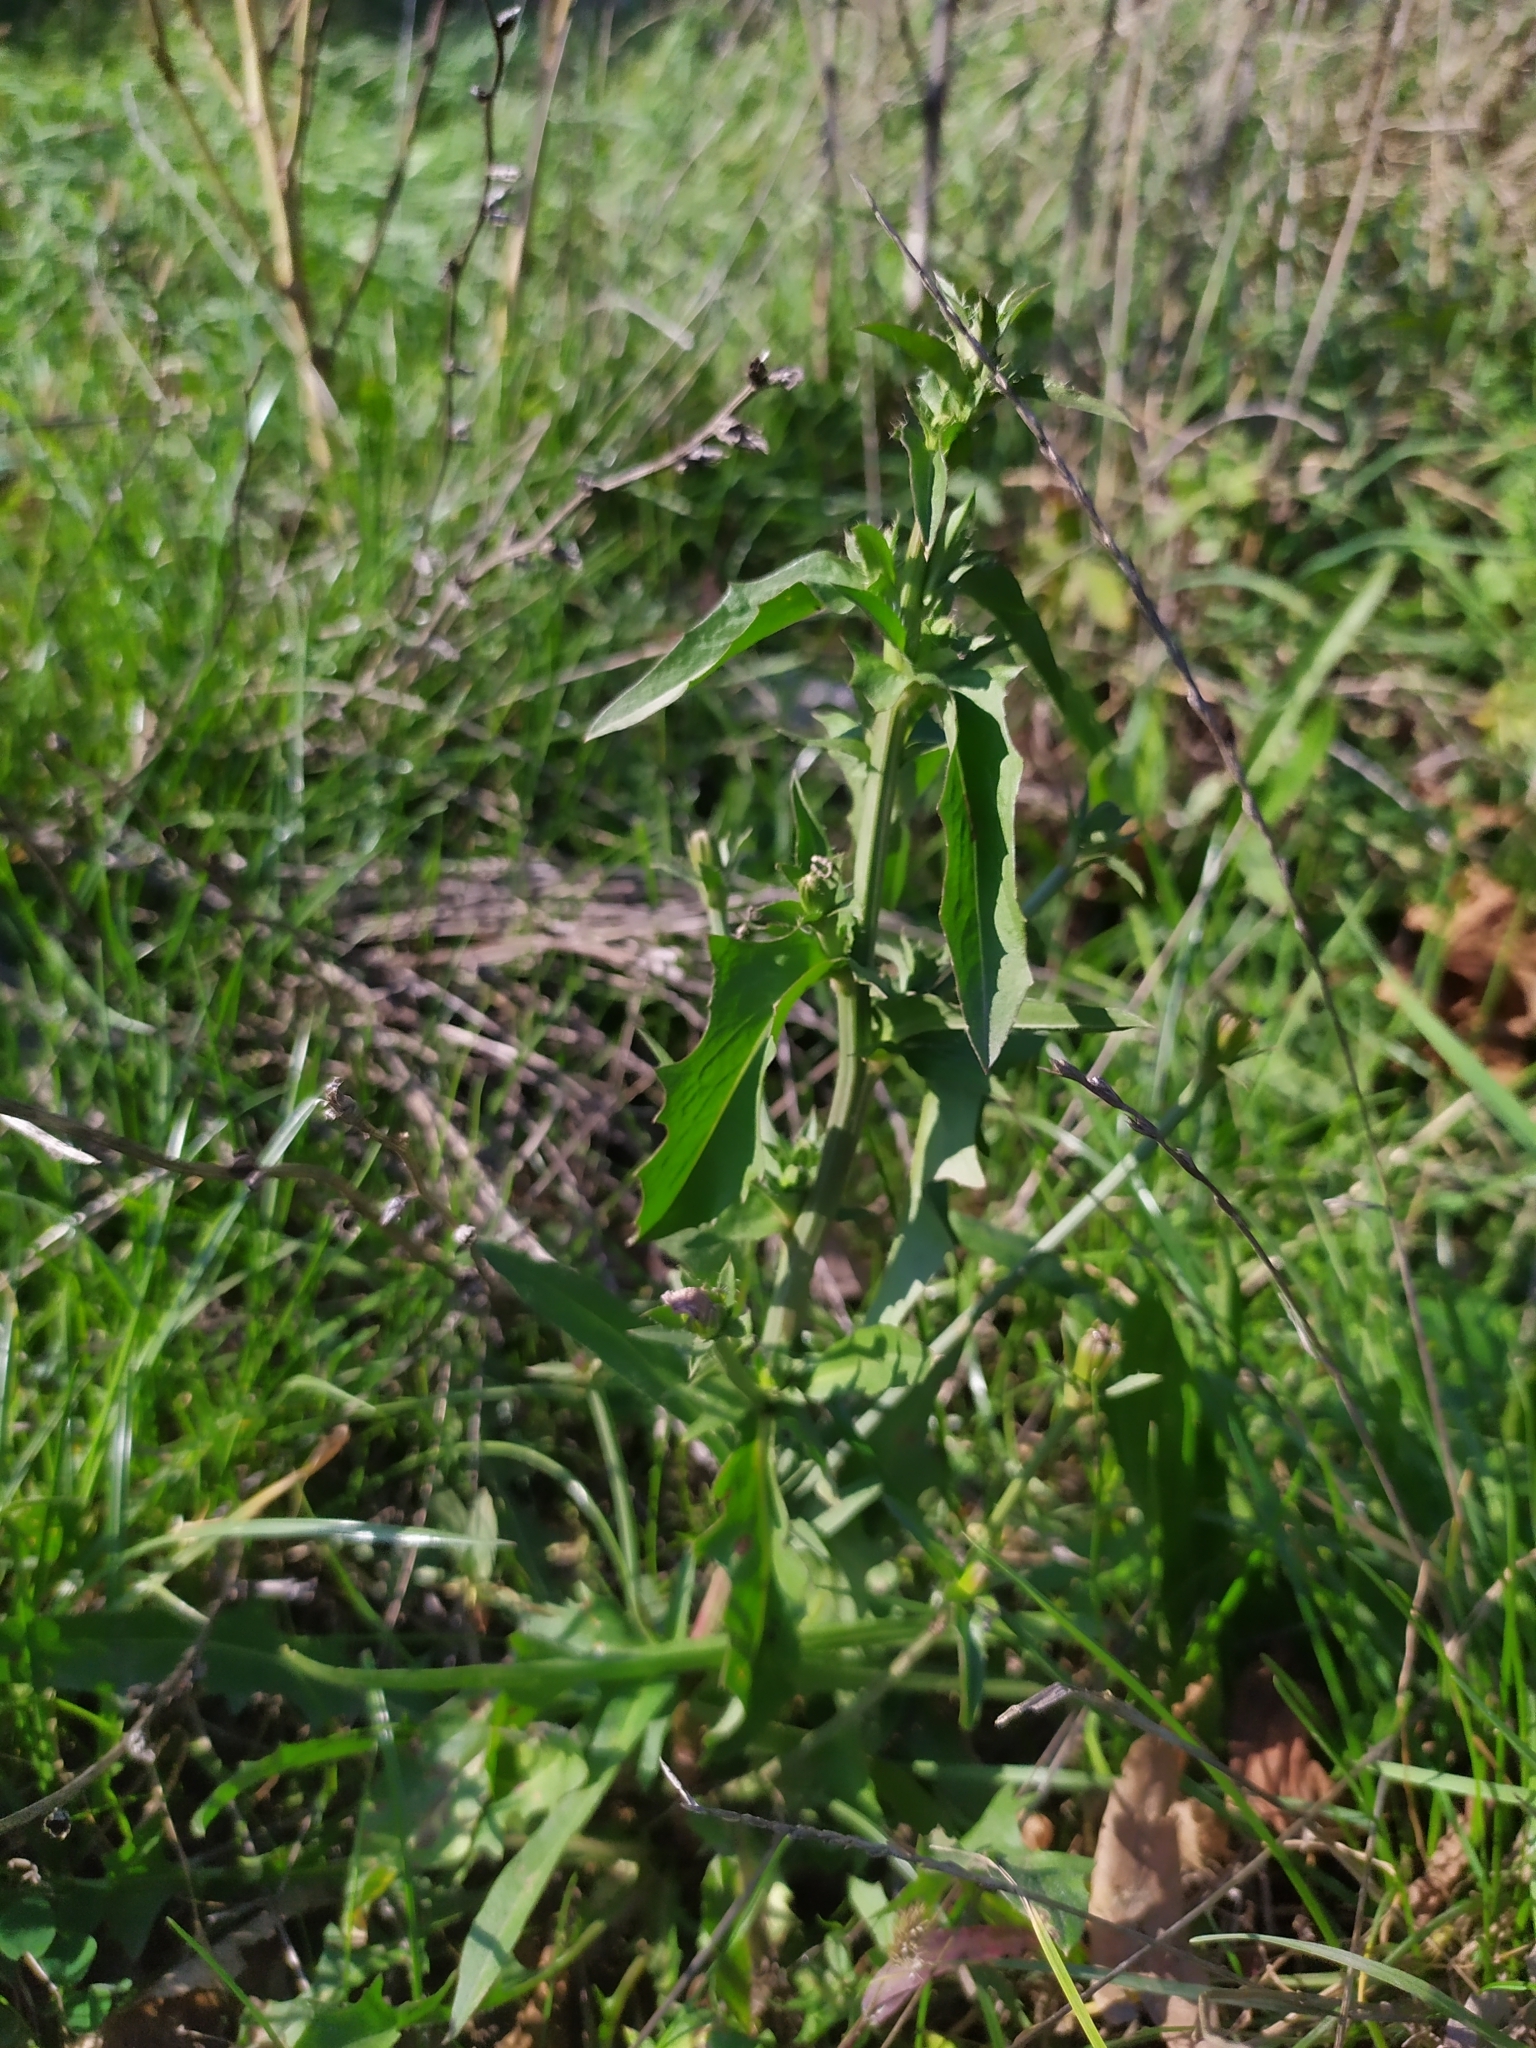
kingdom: Plantae
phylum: Tracheophyta
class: Magnoliopsida
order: Asterales
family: Asteraceae
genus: Cichorium
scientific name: Cichorium intybus
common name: Chicory
